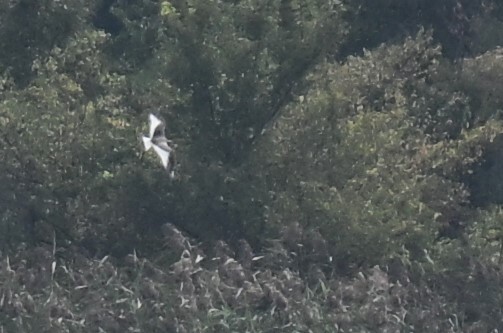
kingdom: Animalia
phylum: Chordata
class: Aves
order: Charadriiformes
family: Laridae
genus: Xema
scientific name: Xema sabini
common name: Sabine's gull
